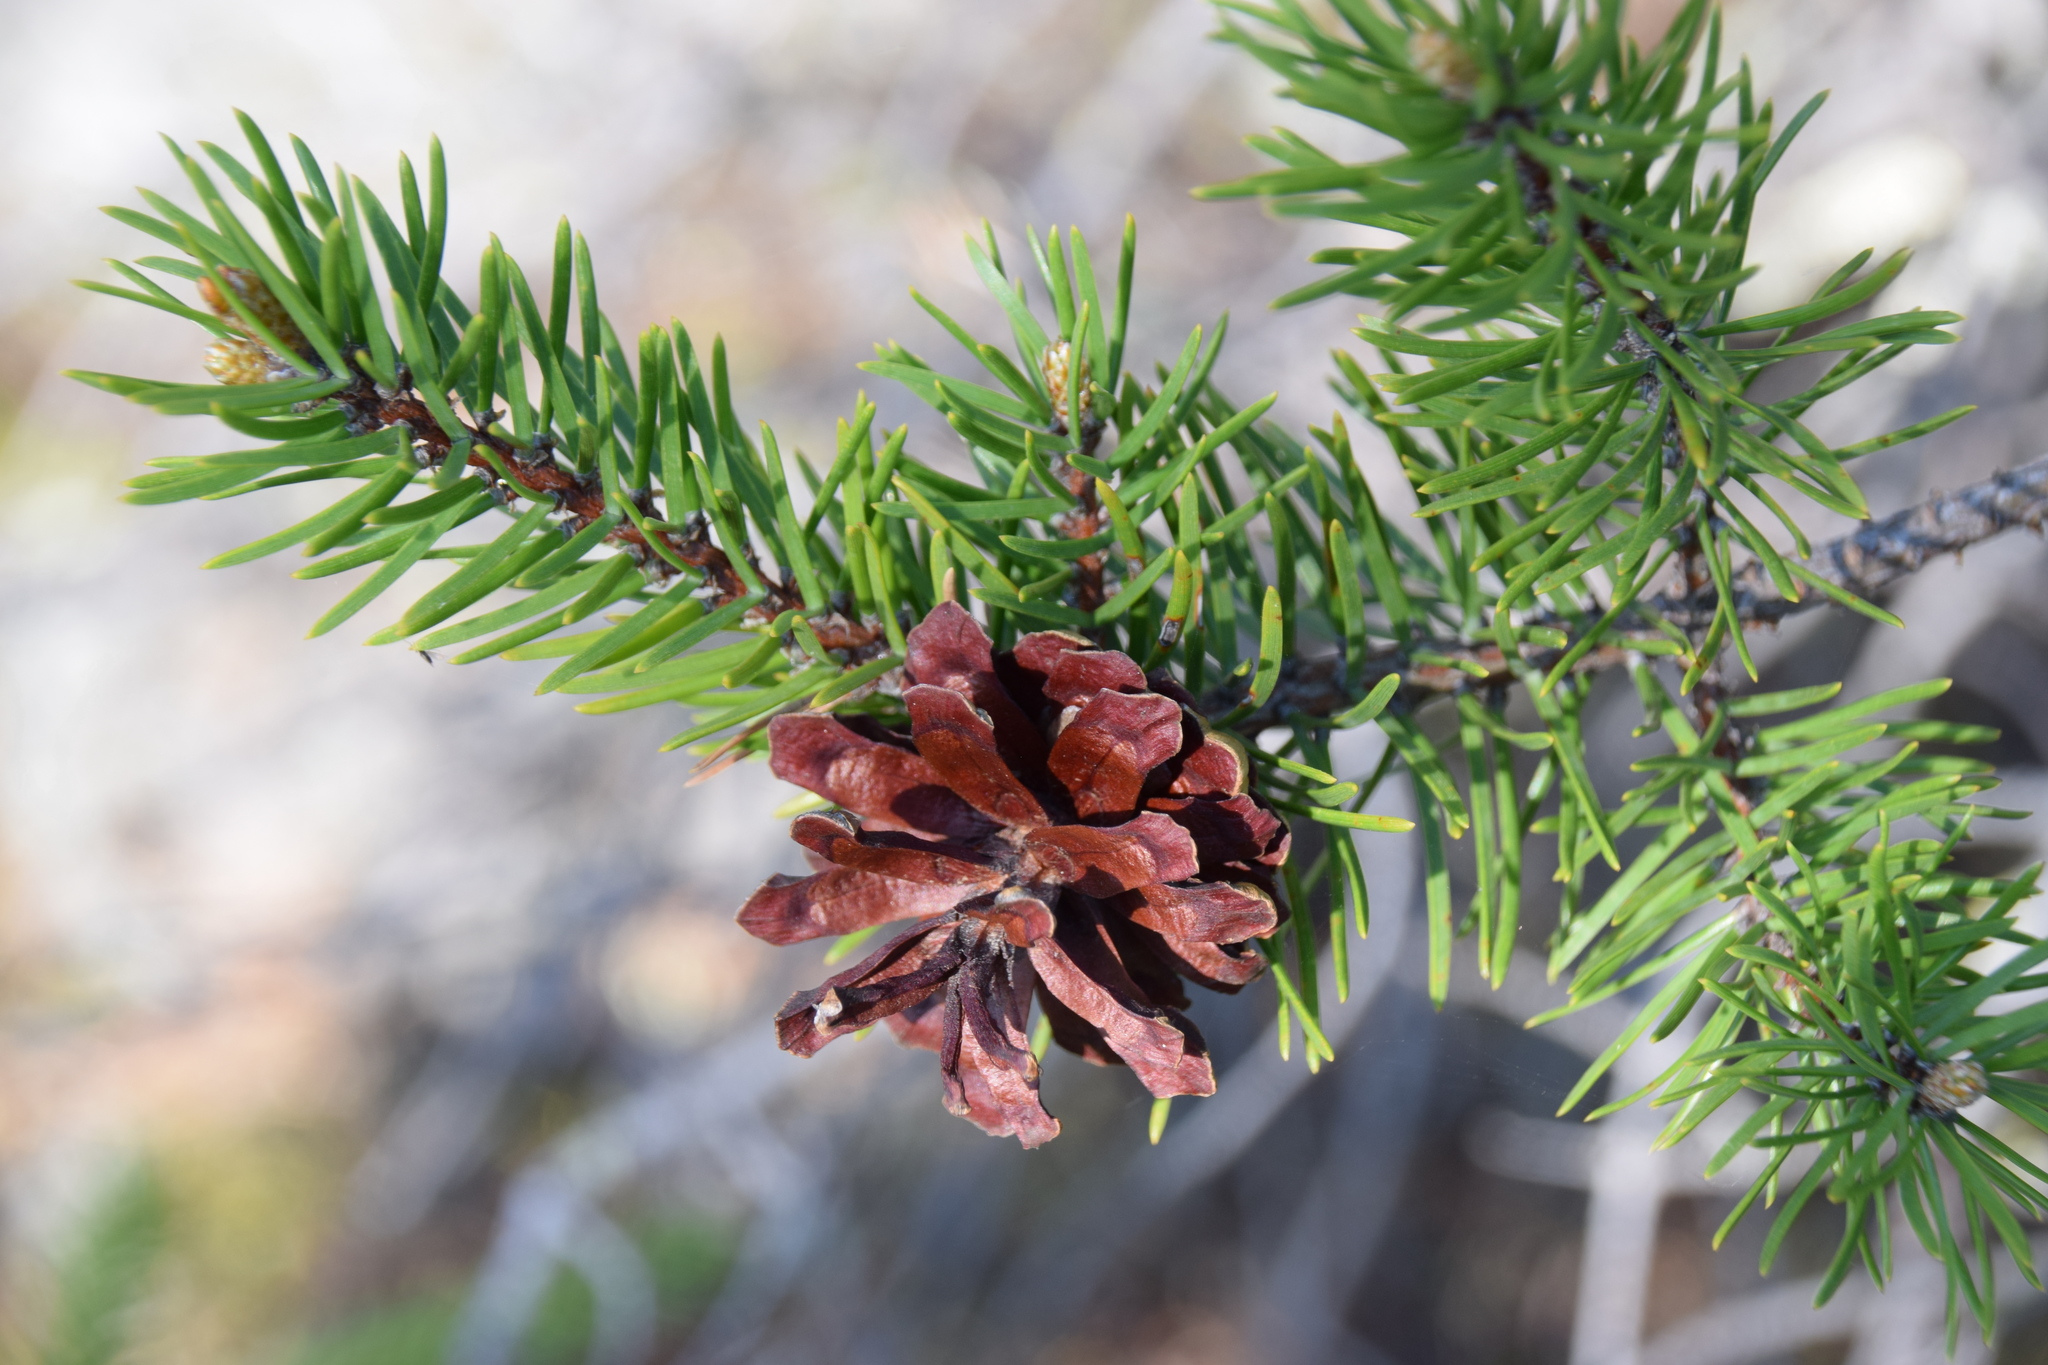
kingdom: Plantae
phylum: Tracheophyta
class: Pinopsida
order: Pinales
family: Pinaceae
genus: Pinus
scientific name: Pinus banksiana
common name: Jack pine
